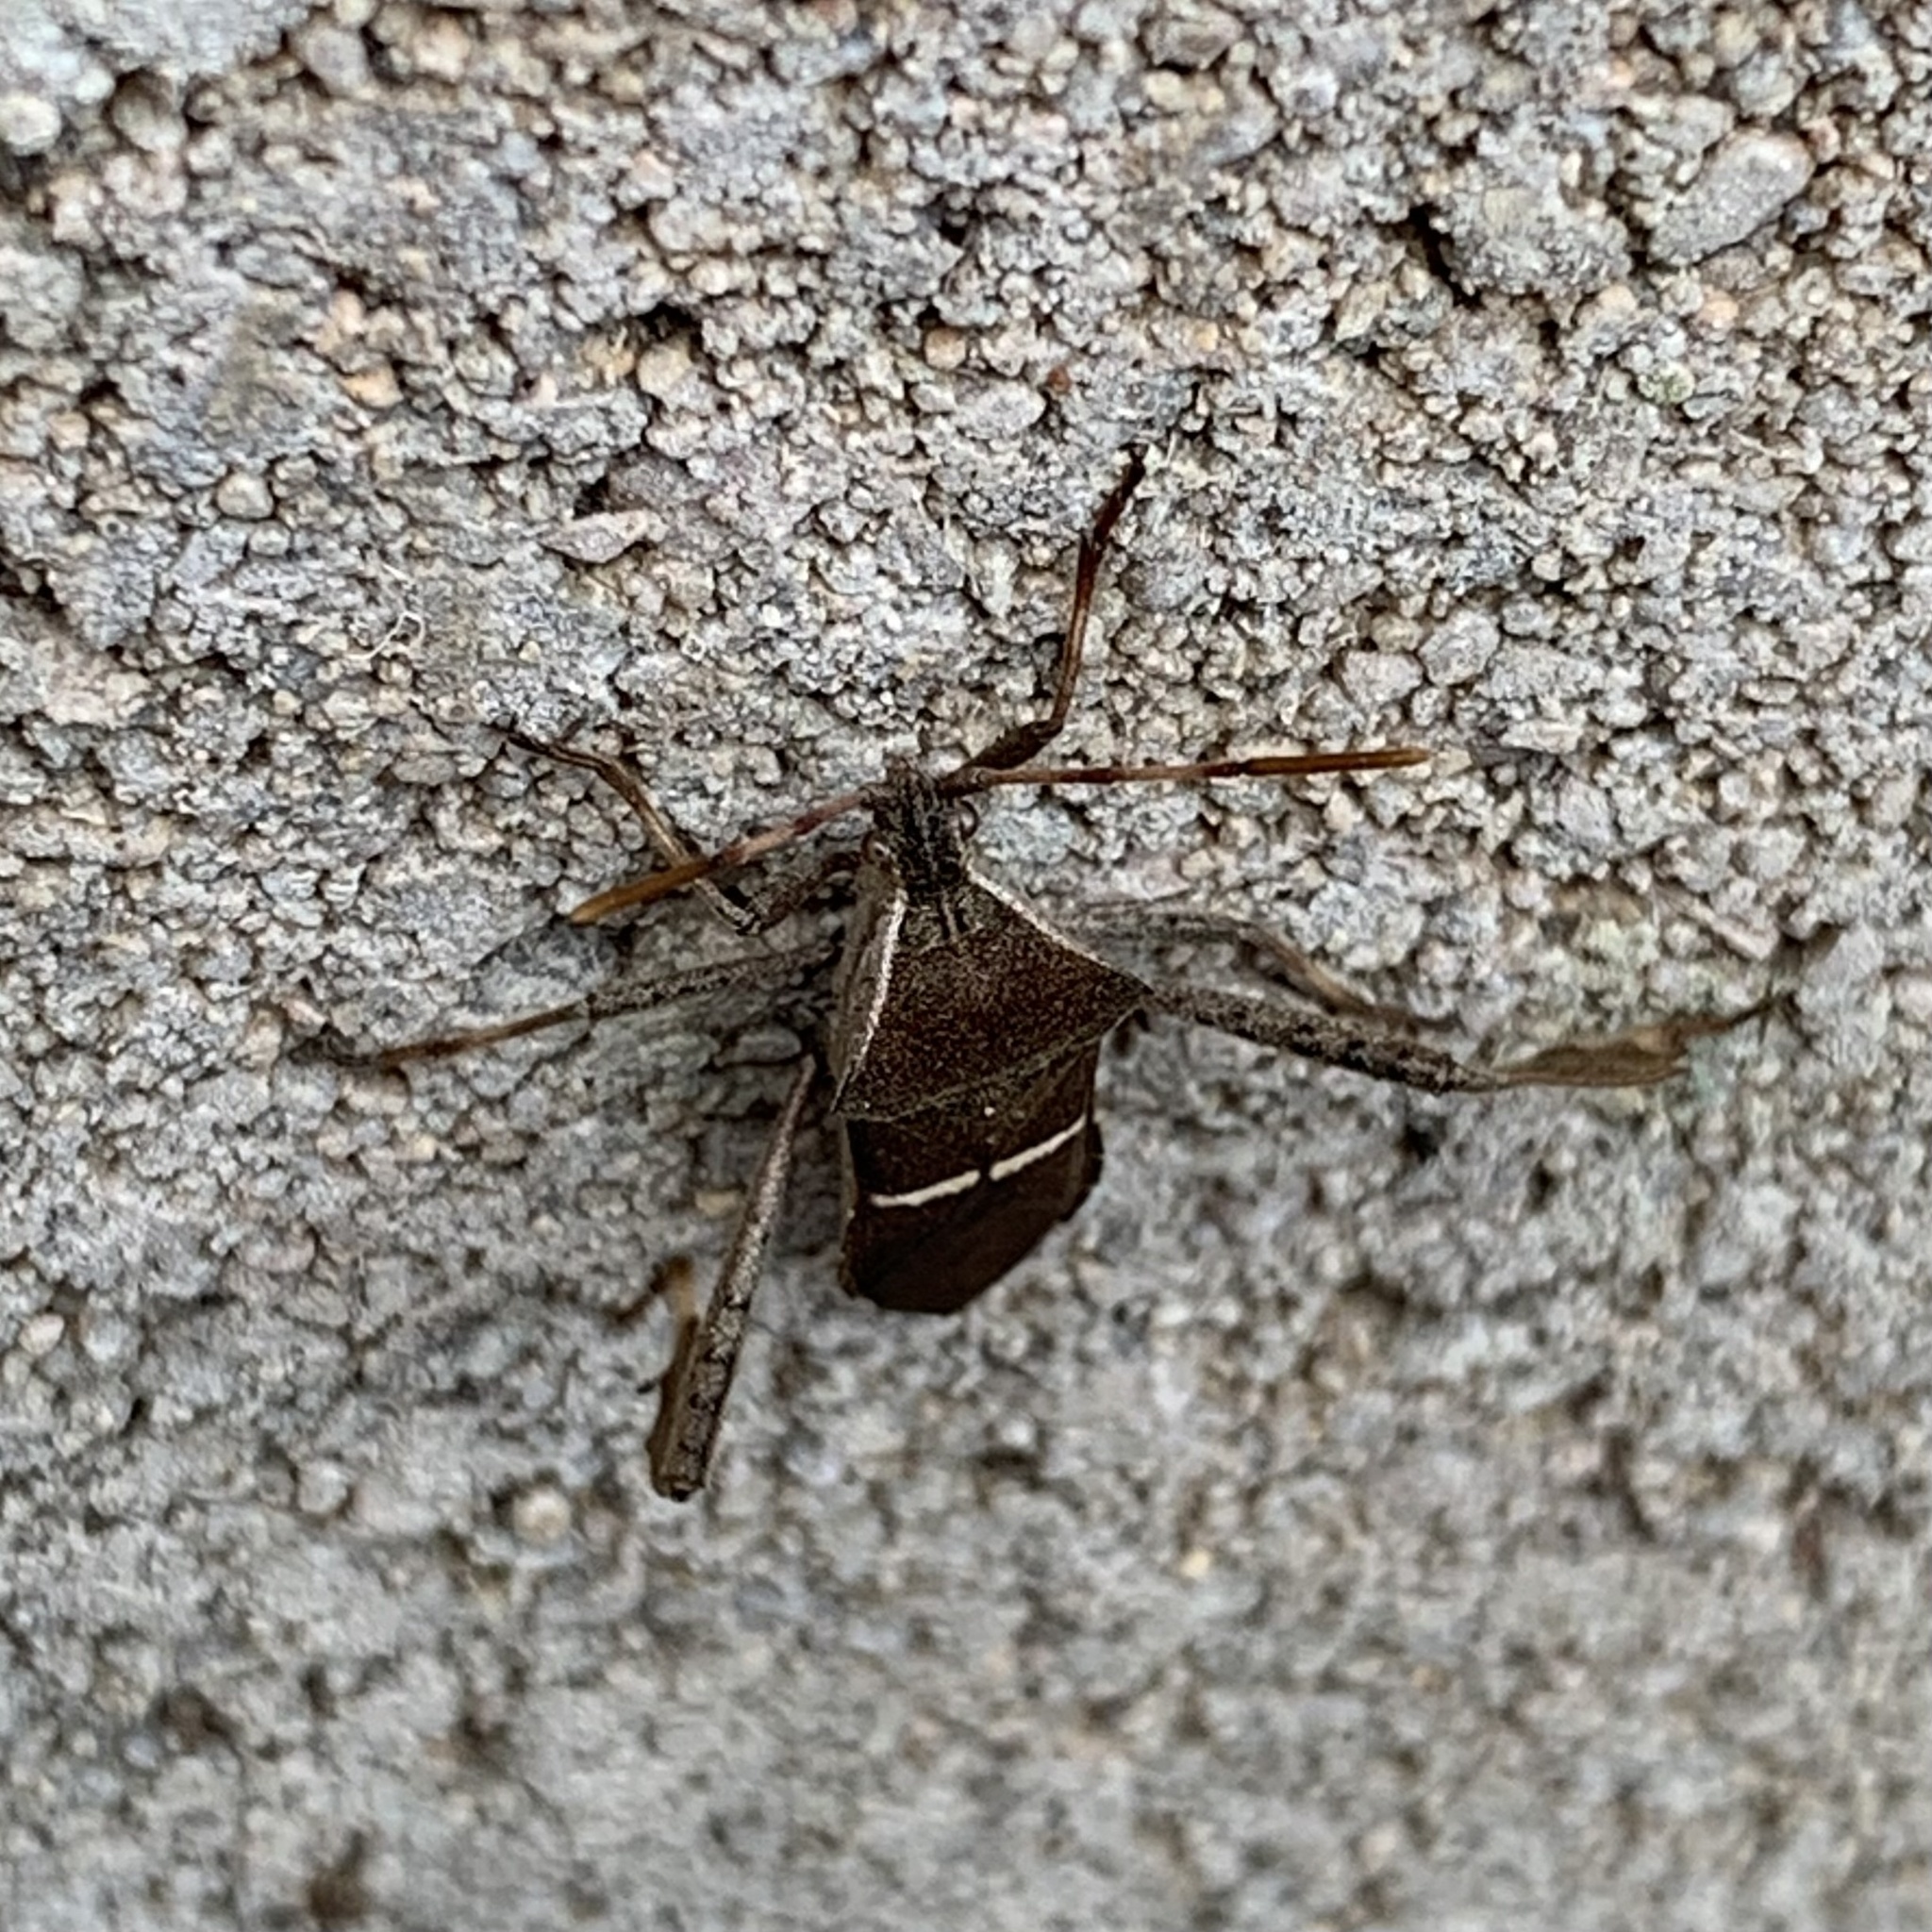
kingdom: Animalia
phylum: Arthropoda
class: Insecta
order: Hemiptera
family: Coreidae
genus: Leptoglossus
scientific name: Leptoglossus phyllopus
